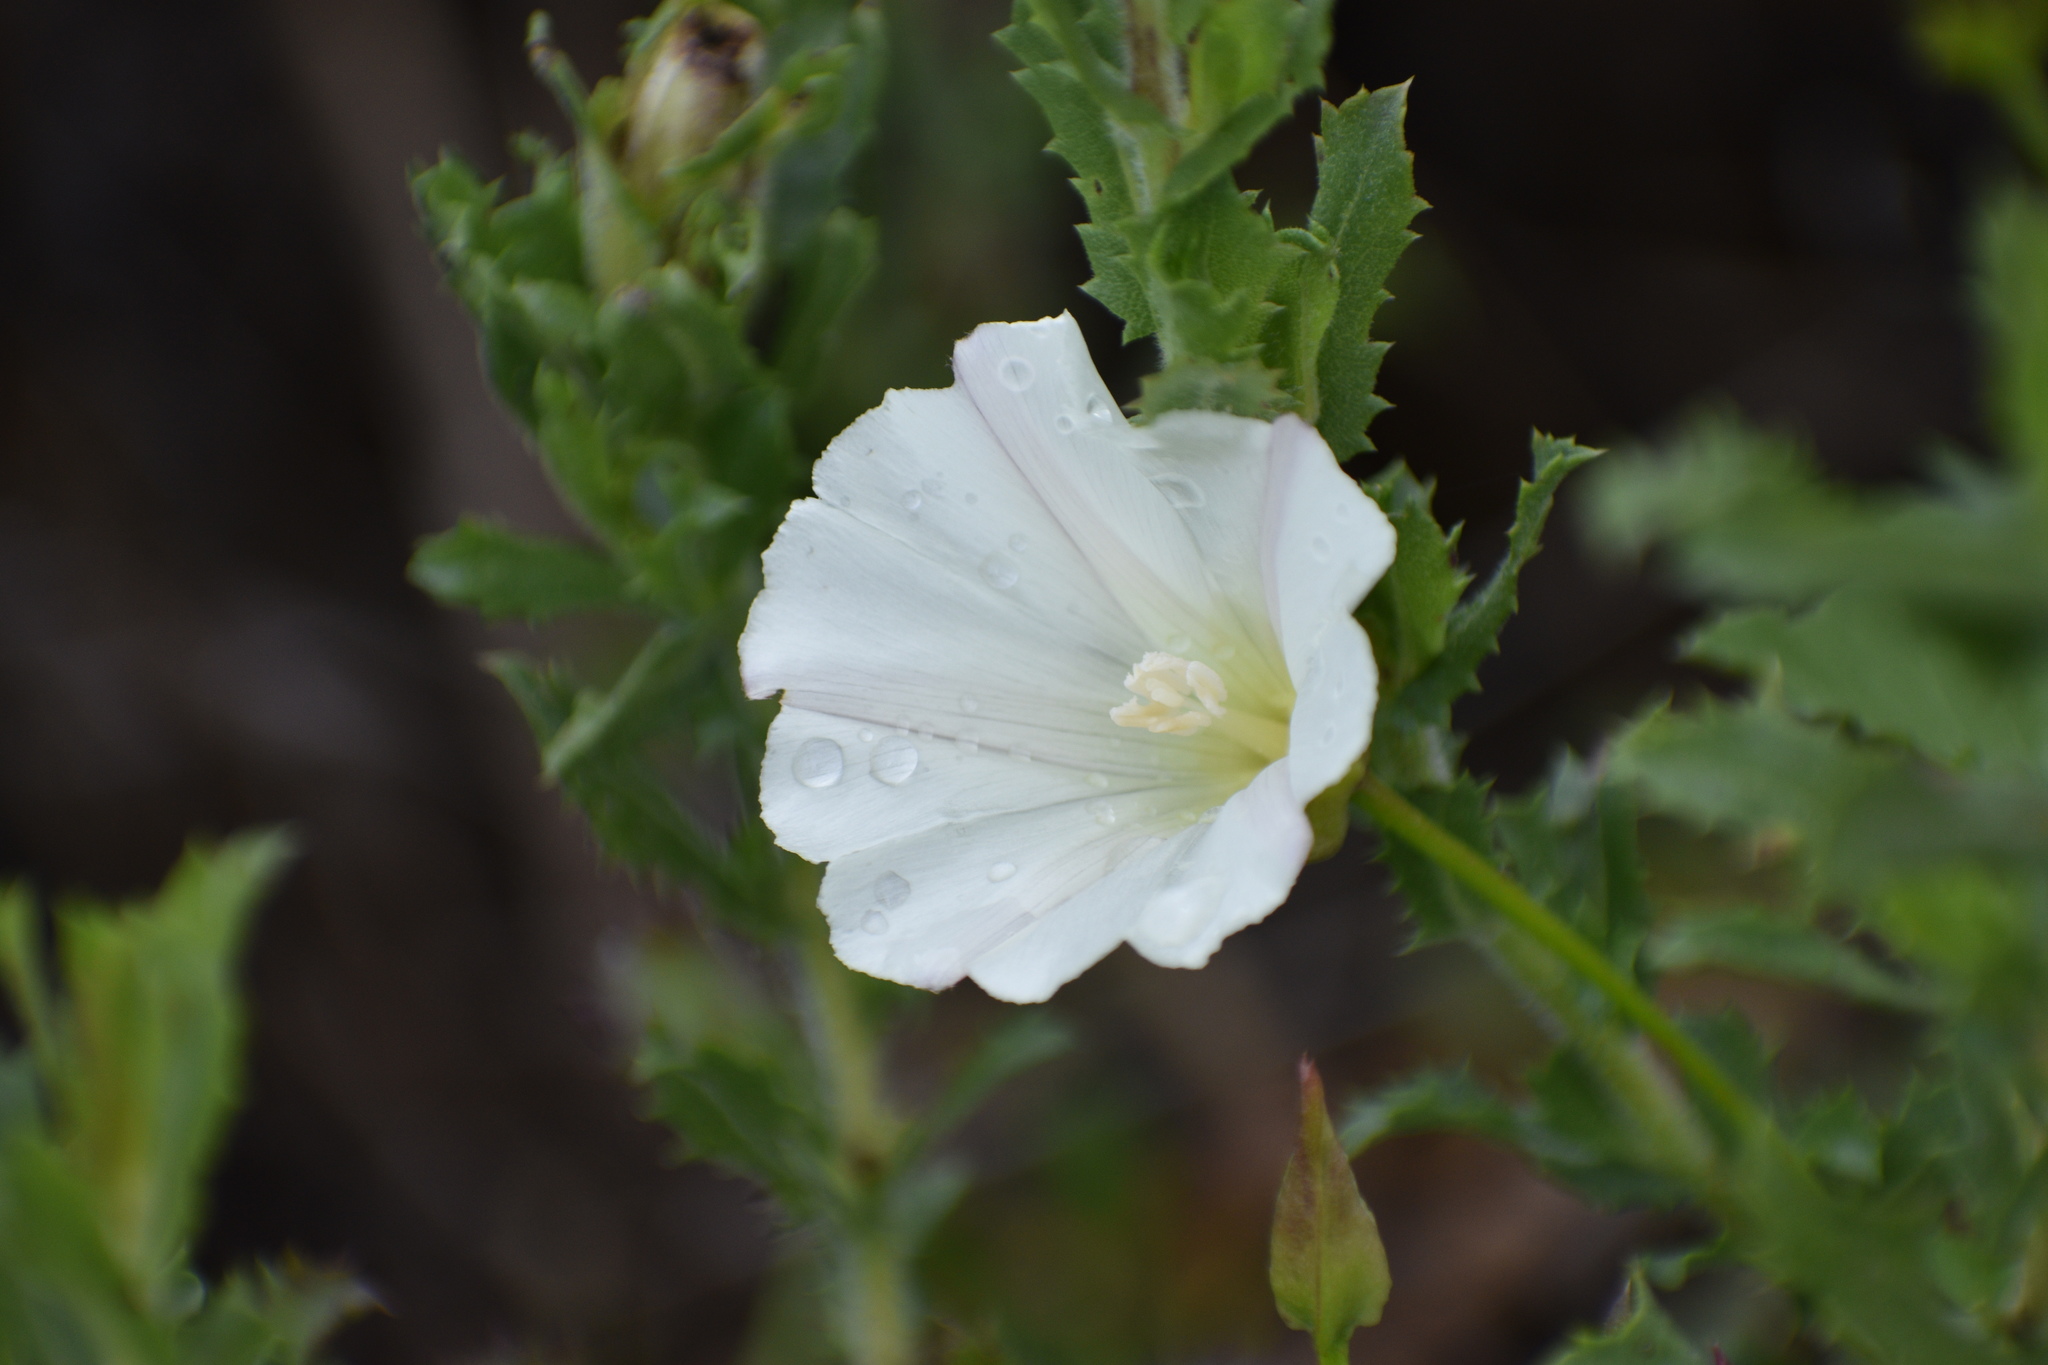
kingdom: Plantae
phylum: Tracheophyta
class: Magnoliopsida
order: Solanales
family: Convolvulaceae
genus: Calystegia
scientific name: Calystegia macrostegia
